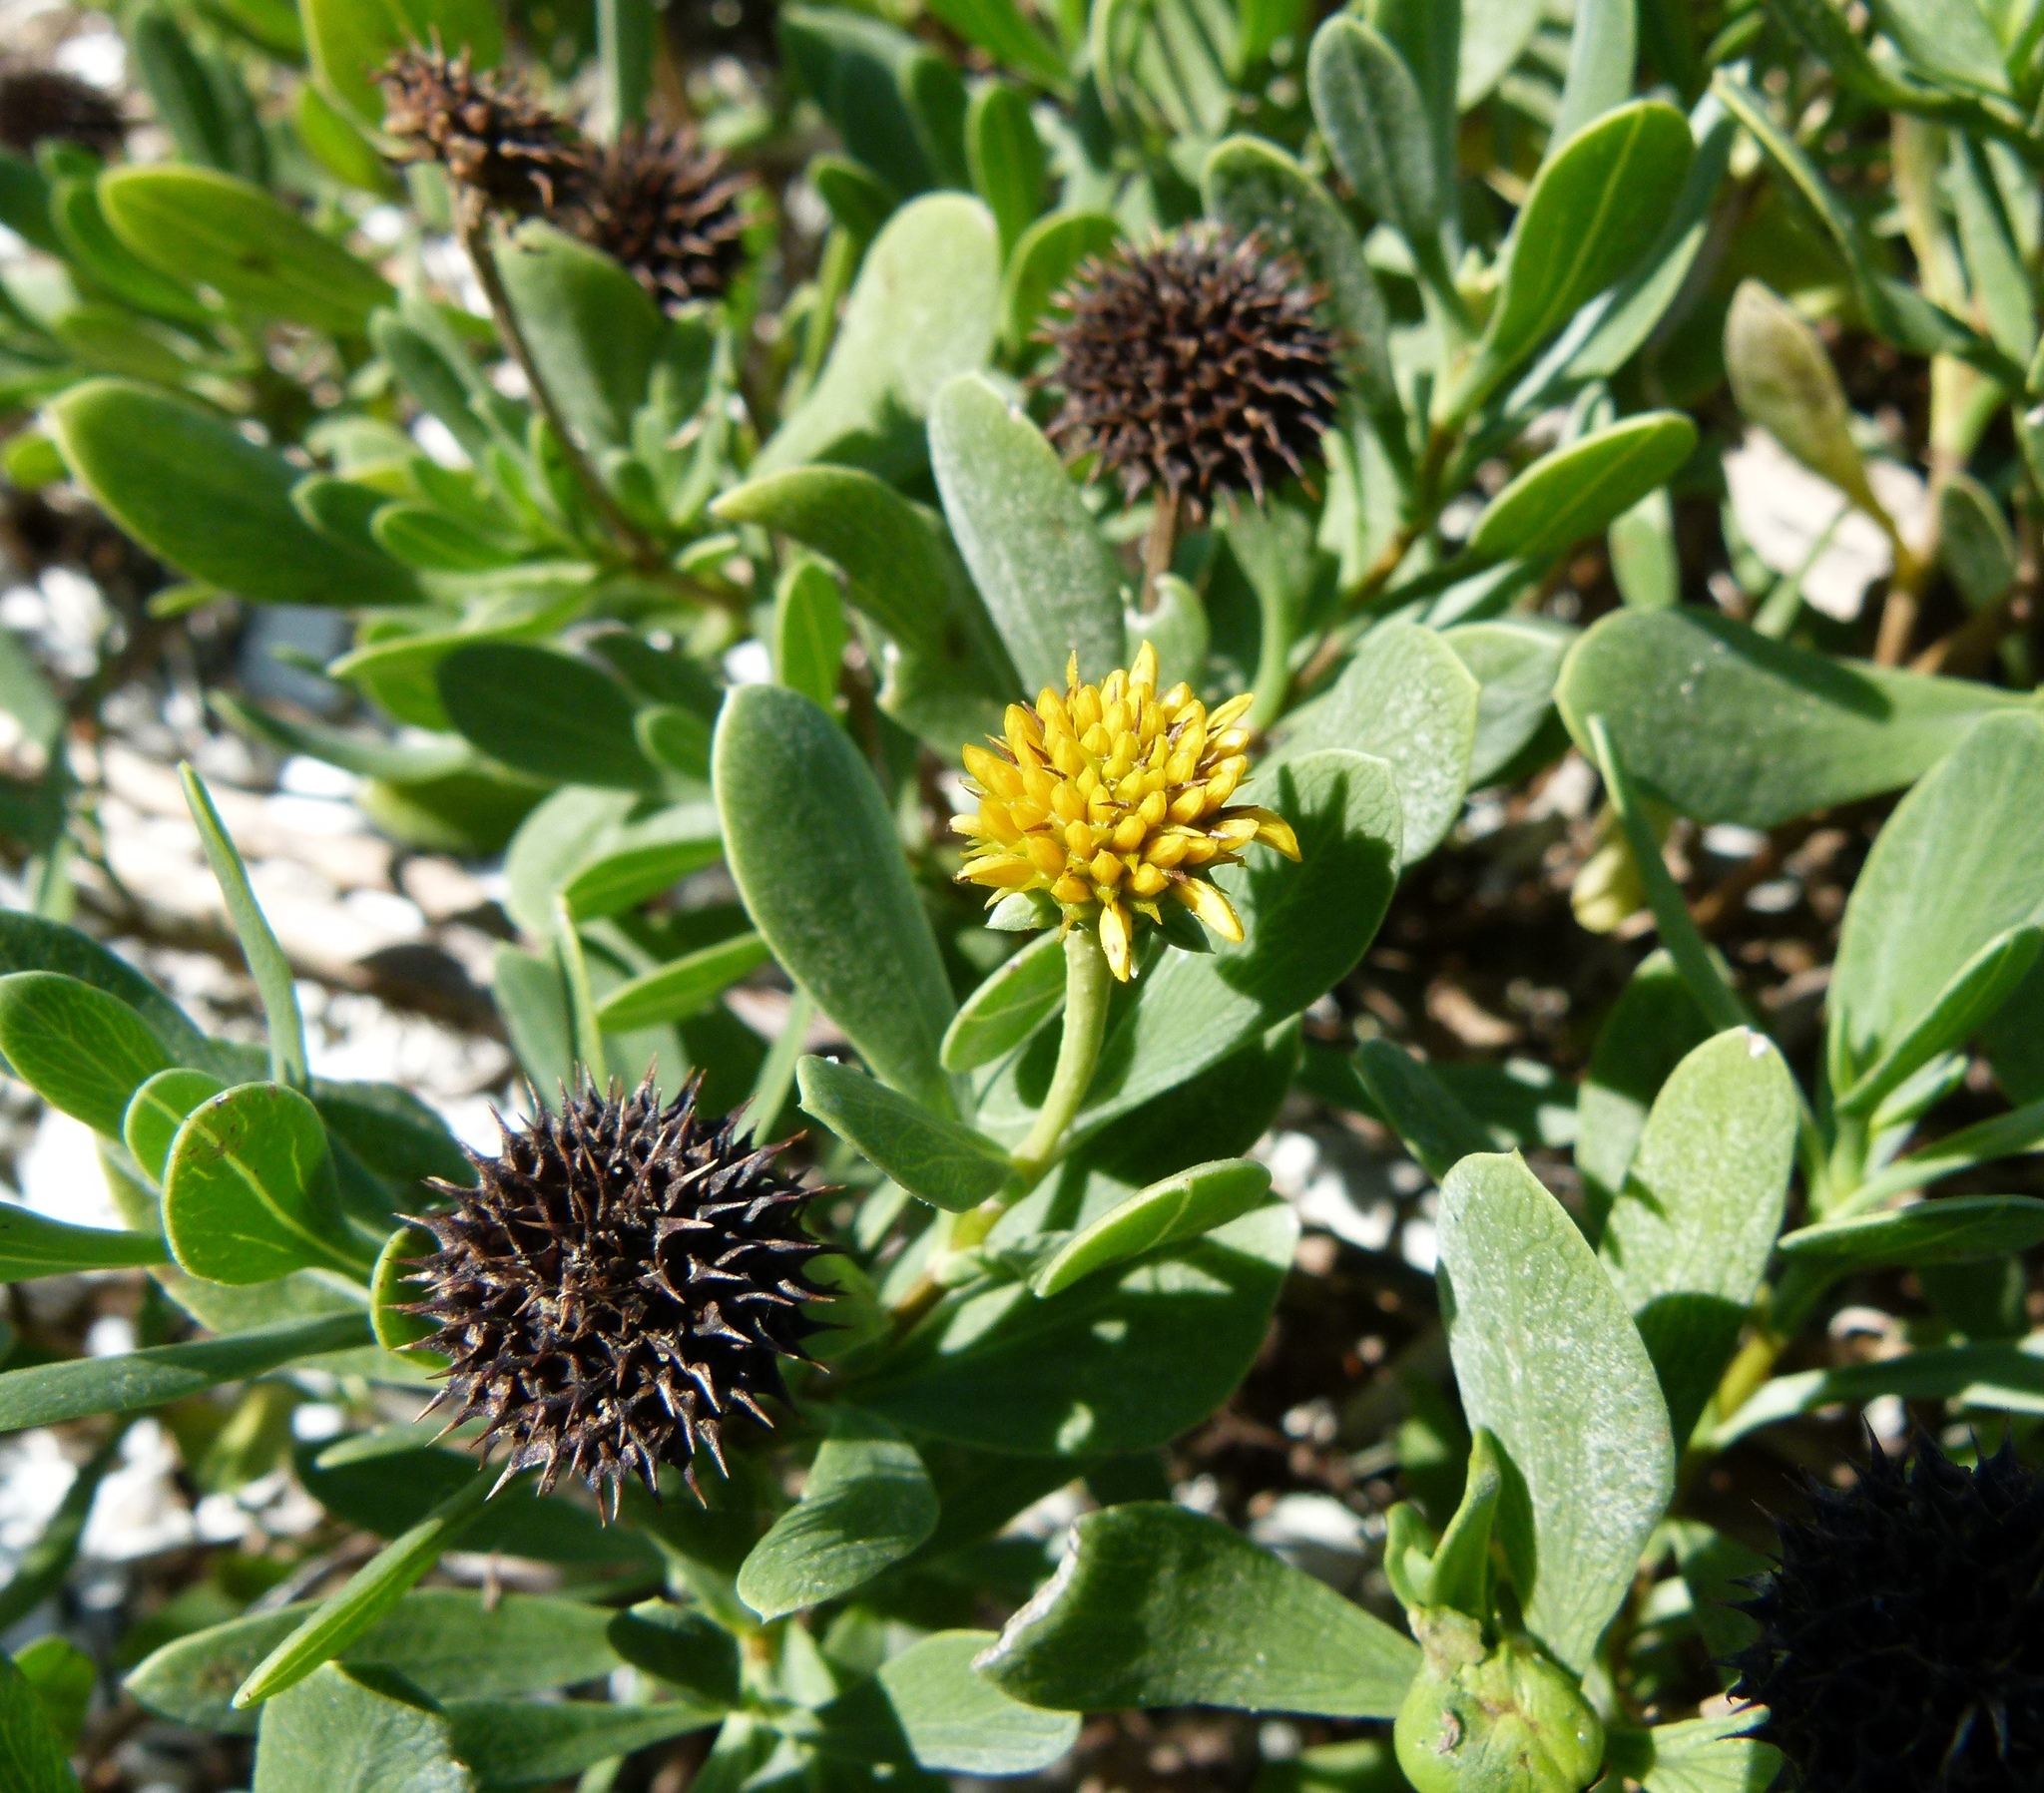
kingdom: Plantae
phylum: Tracheophyta
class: Magnoliopsida
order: Asterales
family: Asteraceae
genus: Borrichia
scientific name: Borrichia frutescens
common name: Sea oxeye
